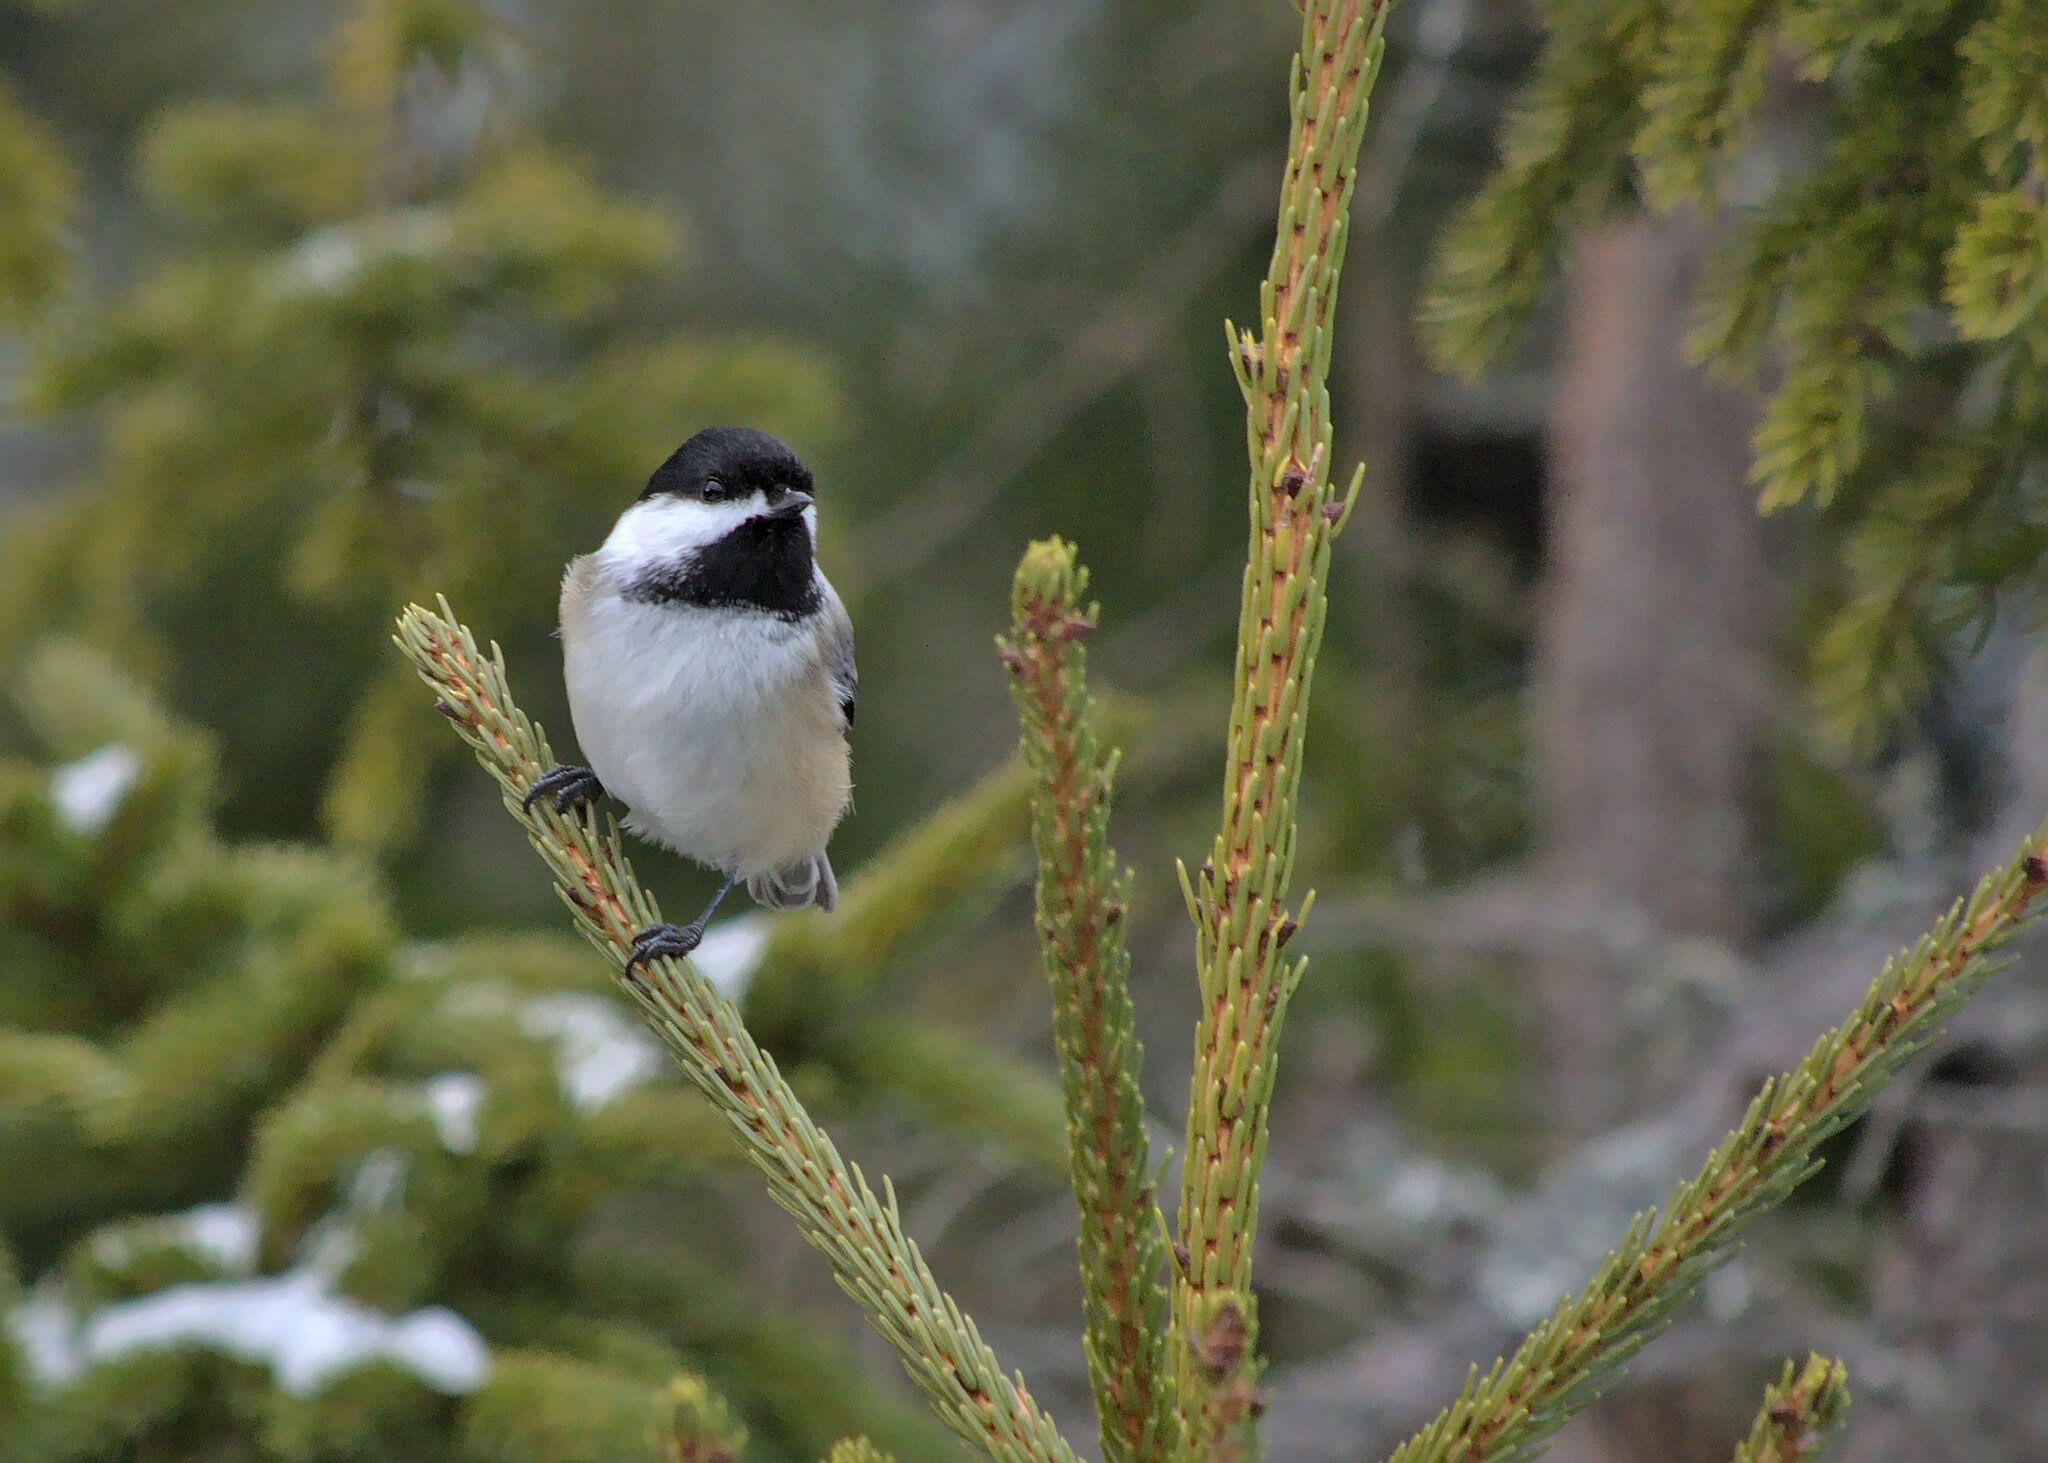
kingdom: Animalia
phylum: Chordata
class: Aves
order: Passeriformes
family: Paridae
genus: Poecile
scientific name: Poecile atricapillus
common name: Black-capped chickadee
